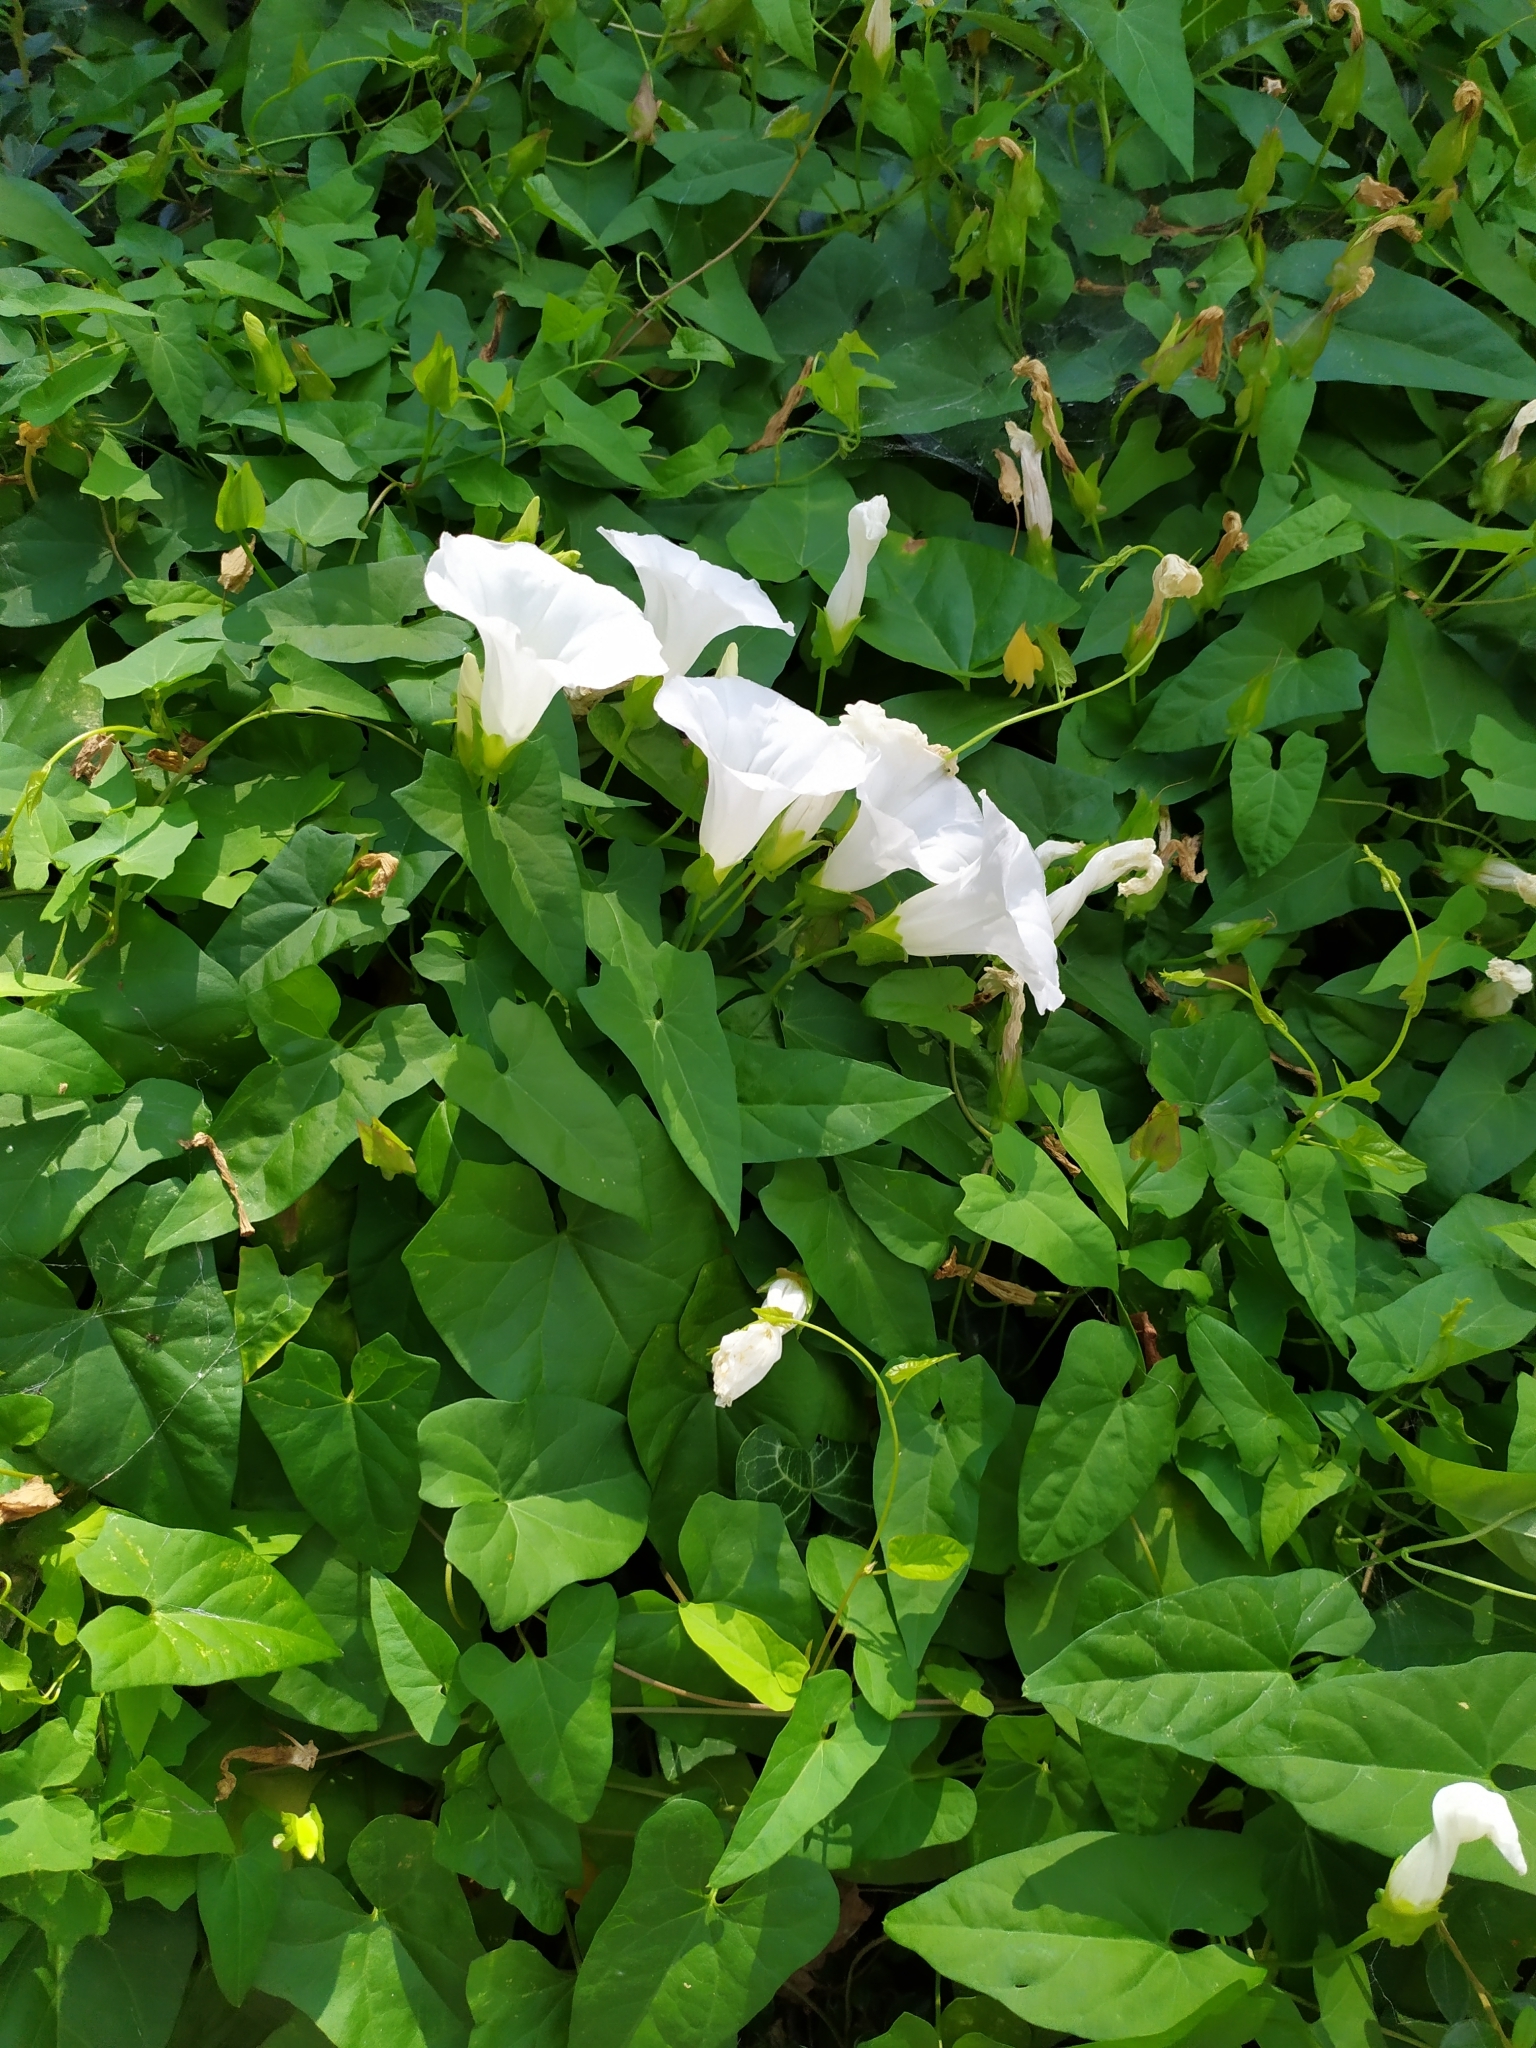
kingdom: Plantae
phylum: Tracheophyta
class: Magnoliopsida
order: Solanales
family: Convolvulaceae
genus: Calystegia
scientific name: Calystegia sepium
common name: Hedge bindweed
